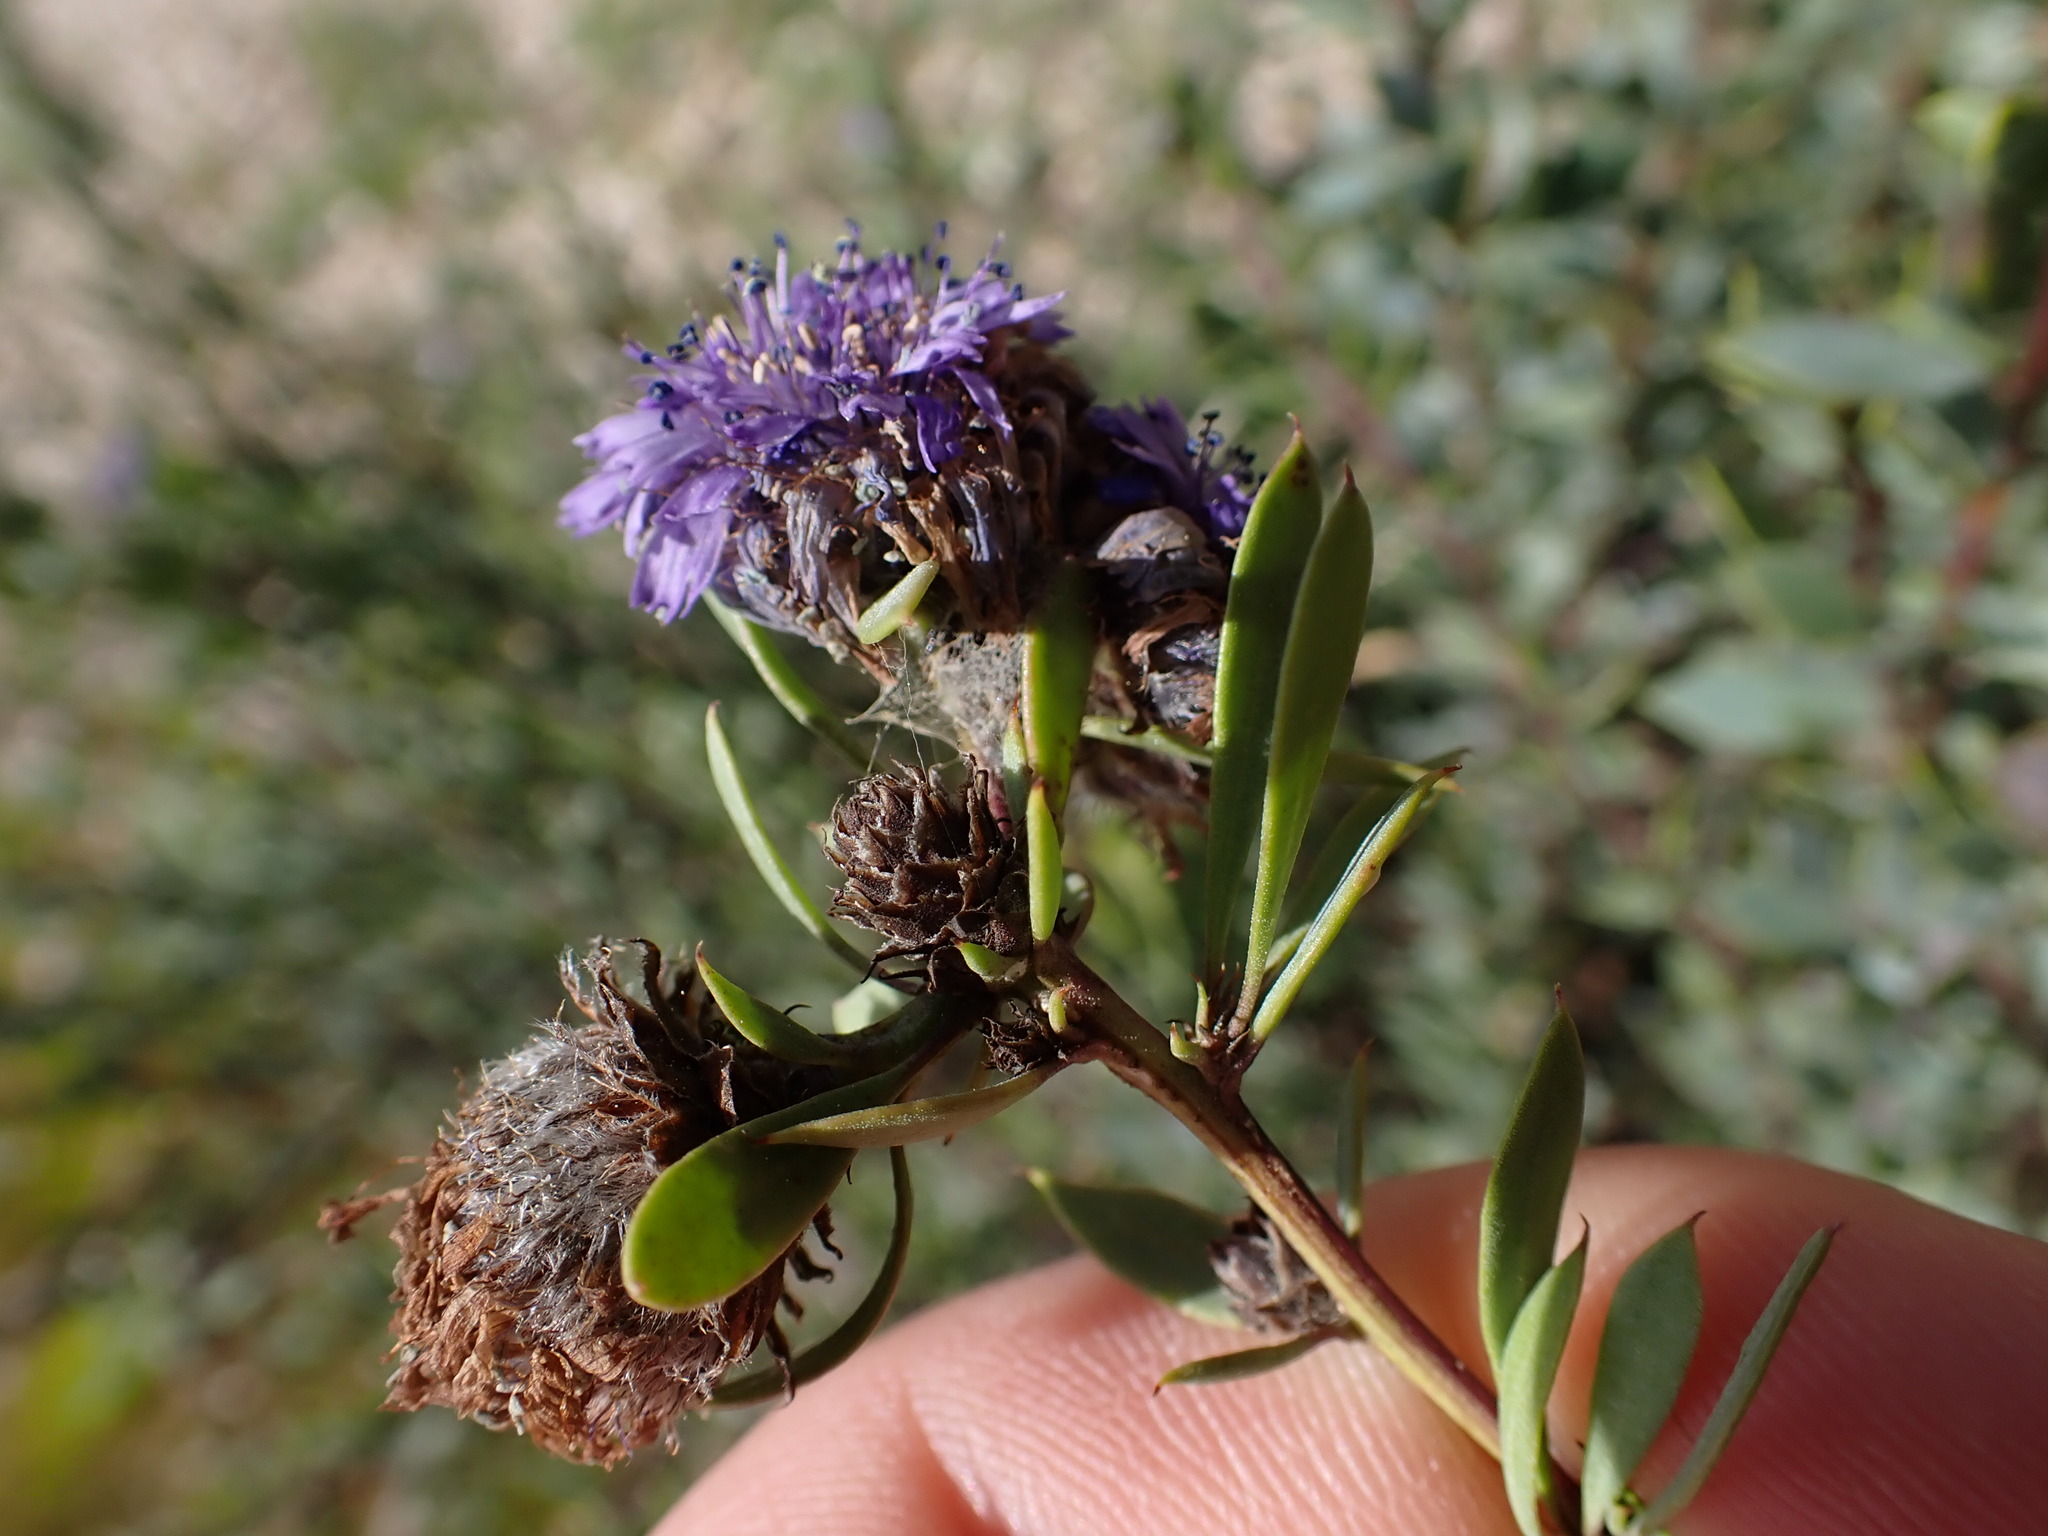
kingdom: Plantae
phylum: Tracheophyta
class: Magnoliopsida
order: Lamiales
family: Plantaginaceae
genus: Globularia
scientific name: Globularia alypum
